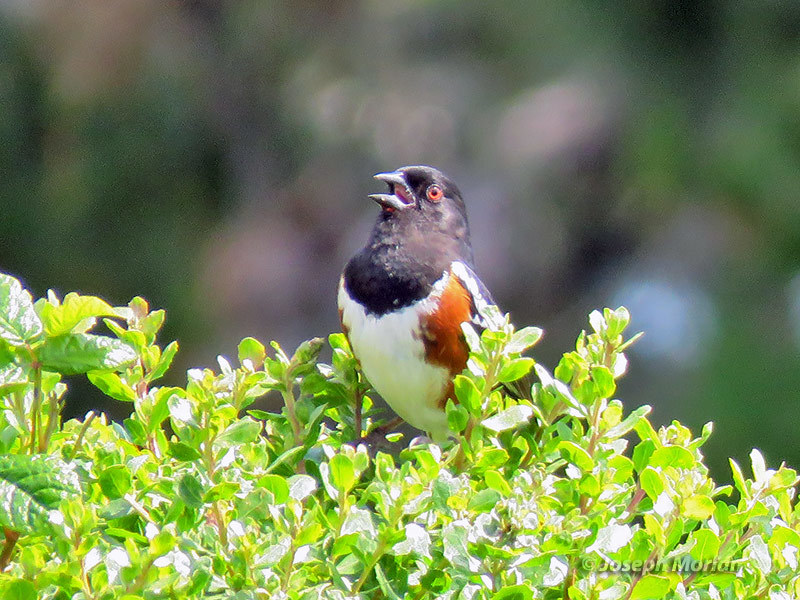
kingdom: Animalia
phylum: Chordata
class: Aves
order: Passeriformes
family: Passerellidae
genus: Pipilo
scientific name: Pipilo maculatus
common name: Spotted towhee
